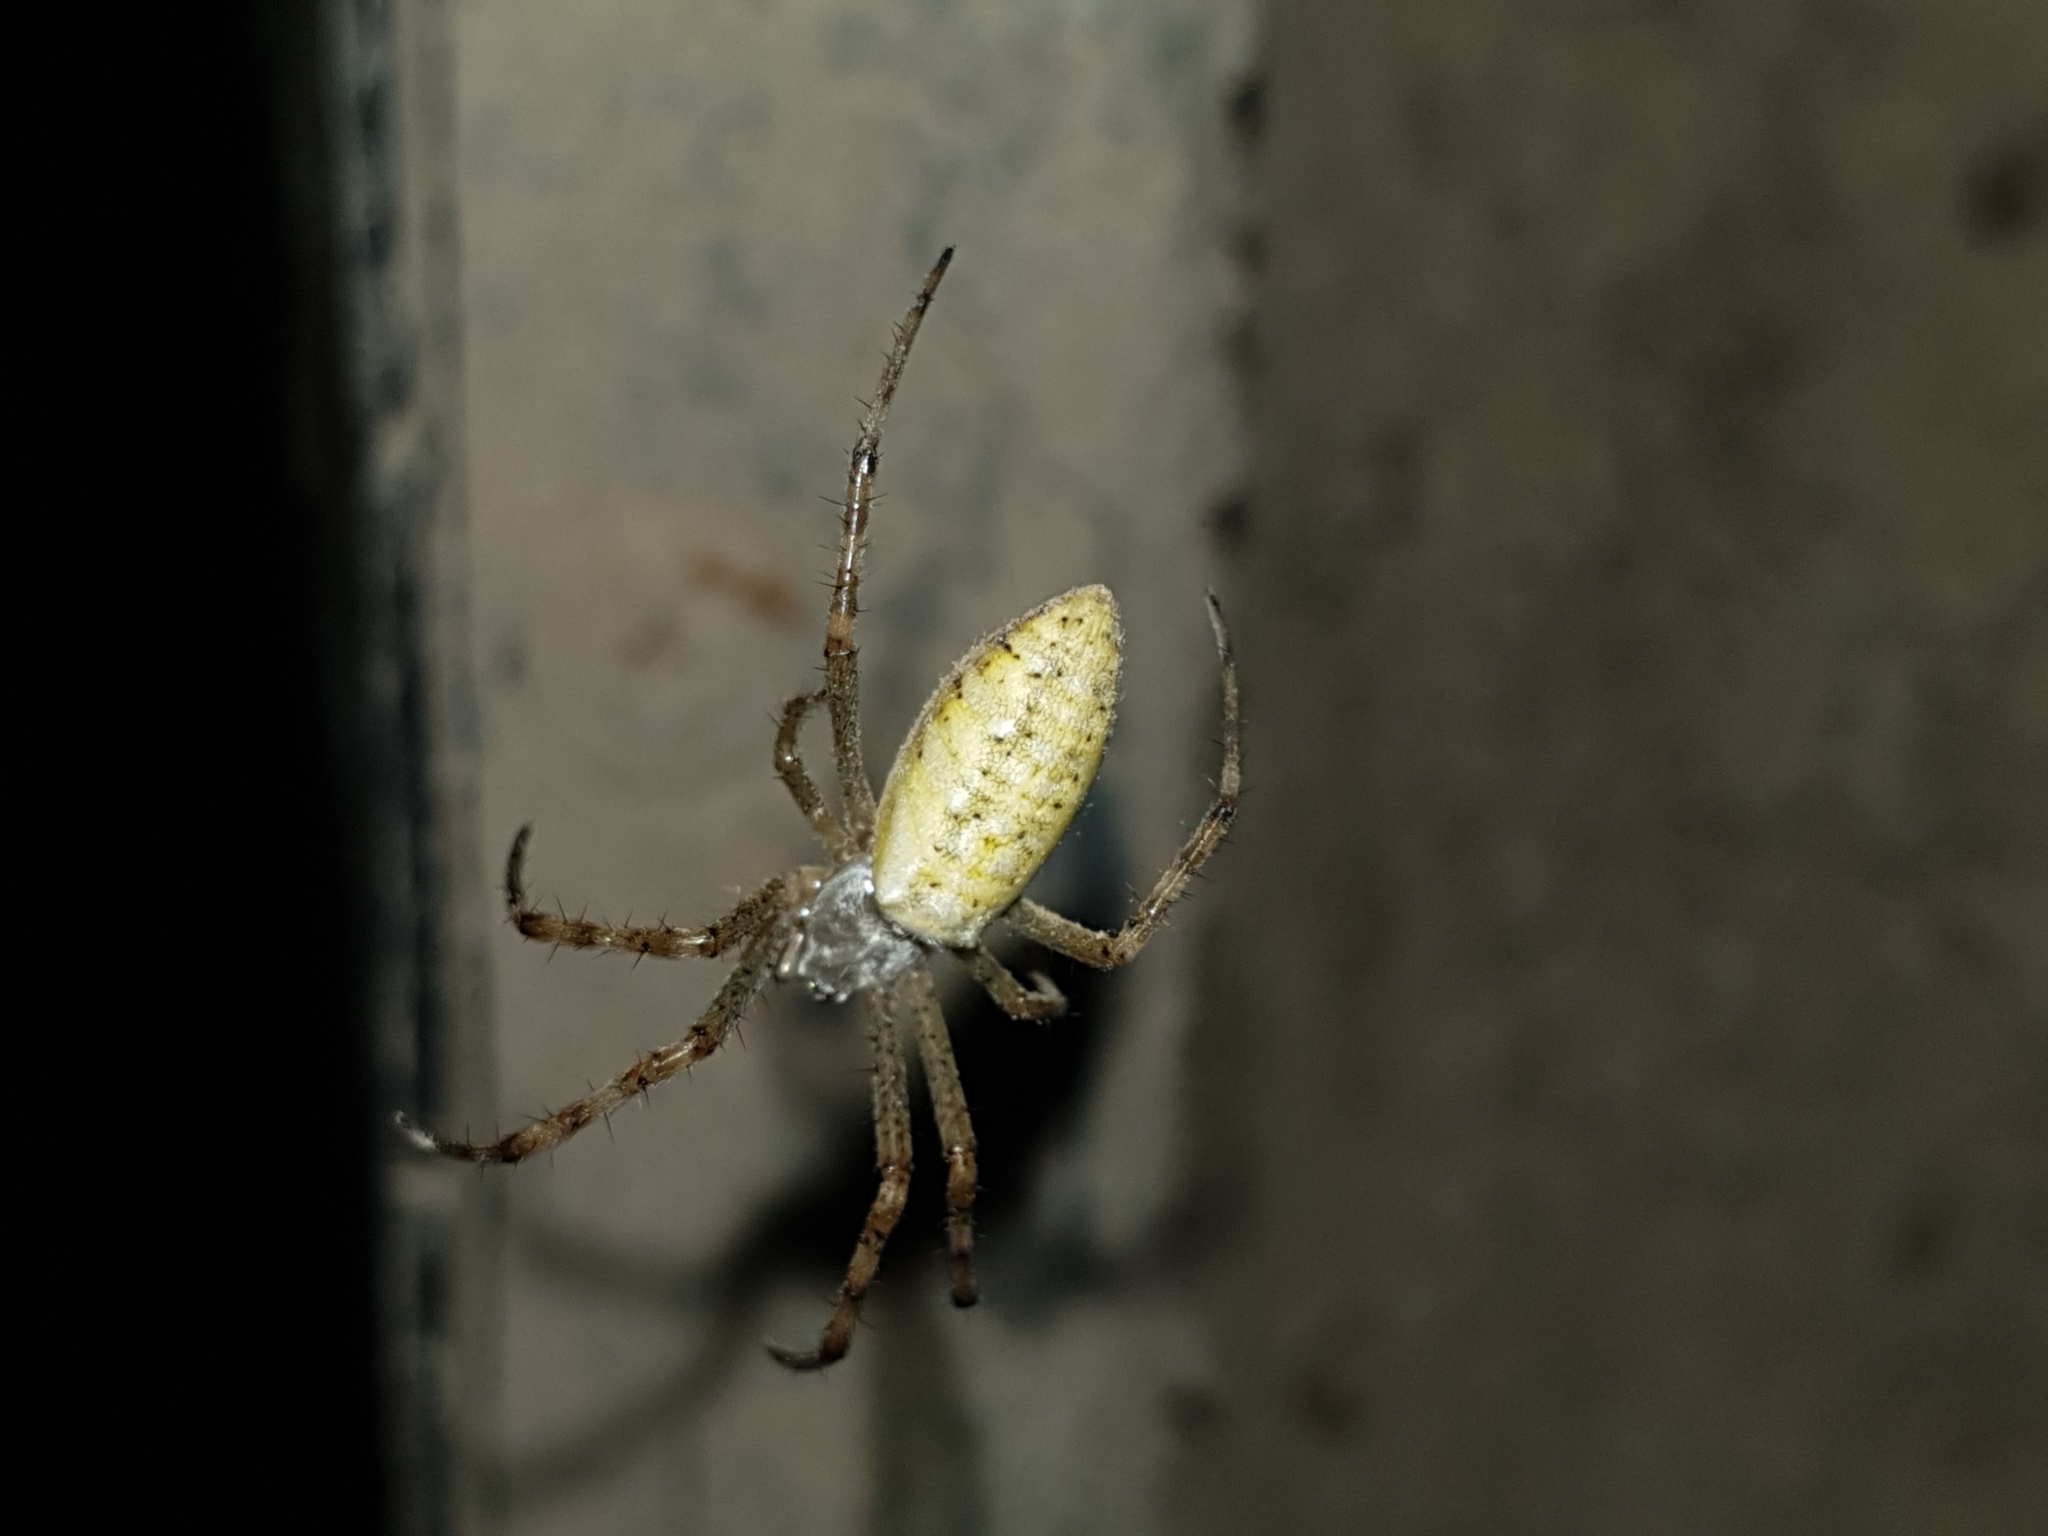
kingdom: Animalia
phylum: Arthropoda
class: Arachnida
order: Araneae
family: Araneidae
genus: Argiope
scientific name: Argiope bruennichi
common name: Wasp spider
